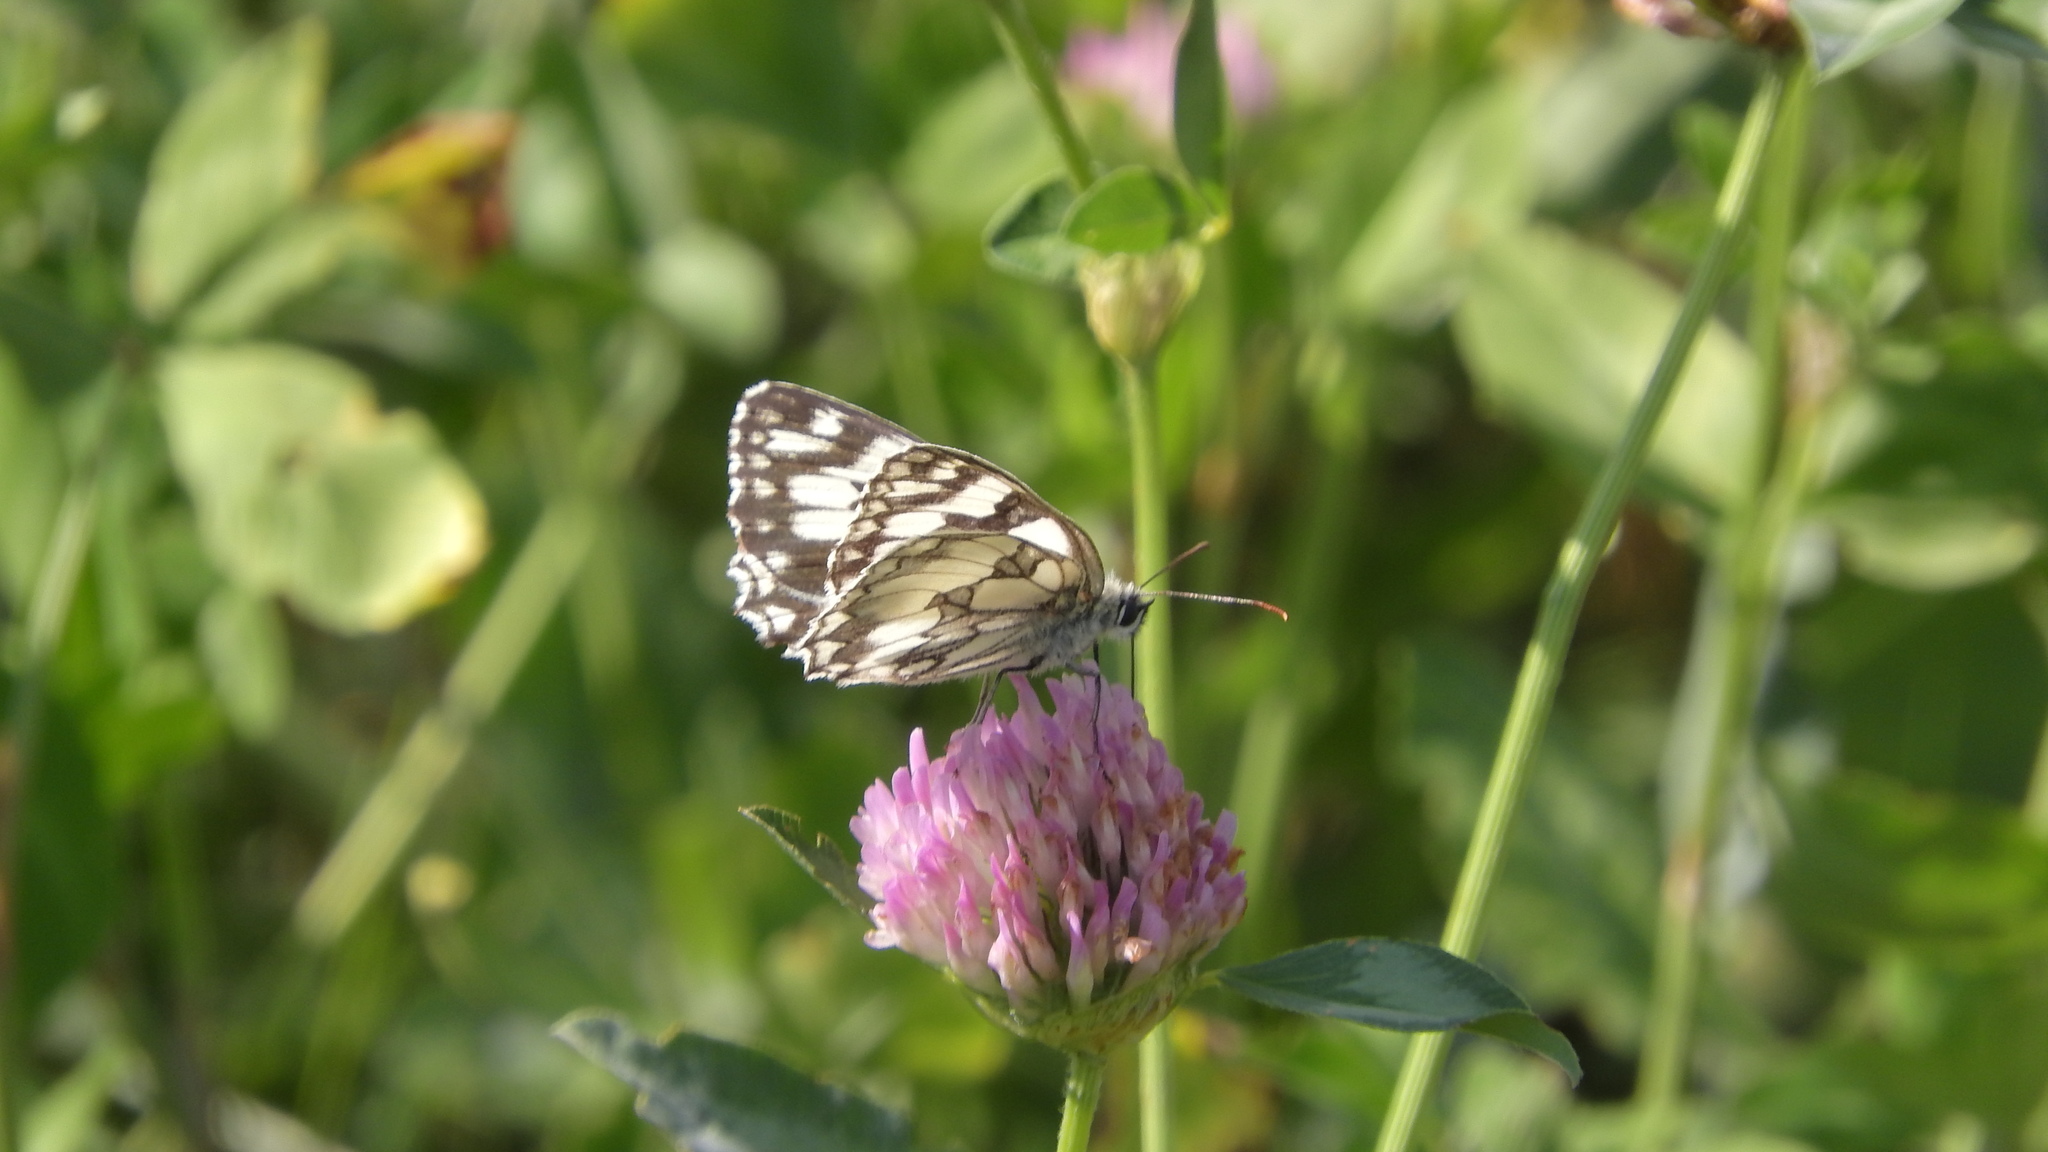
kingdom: Animalia
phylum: Arthropoda
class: Insecta
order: Lepidoptera
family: Nymphalidae
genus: Melanargia
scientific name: Melanargia galathea
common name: Marbled white
